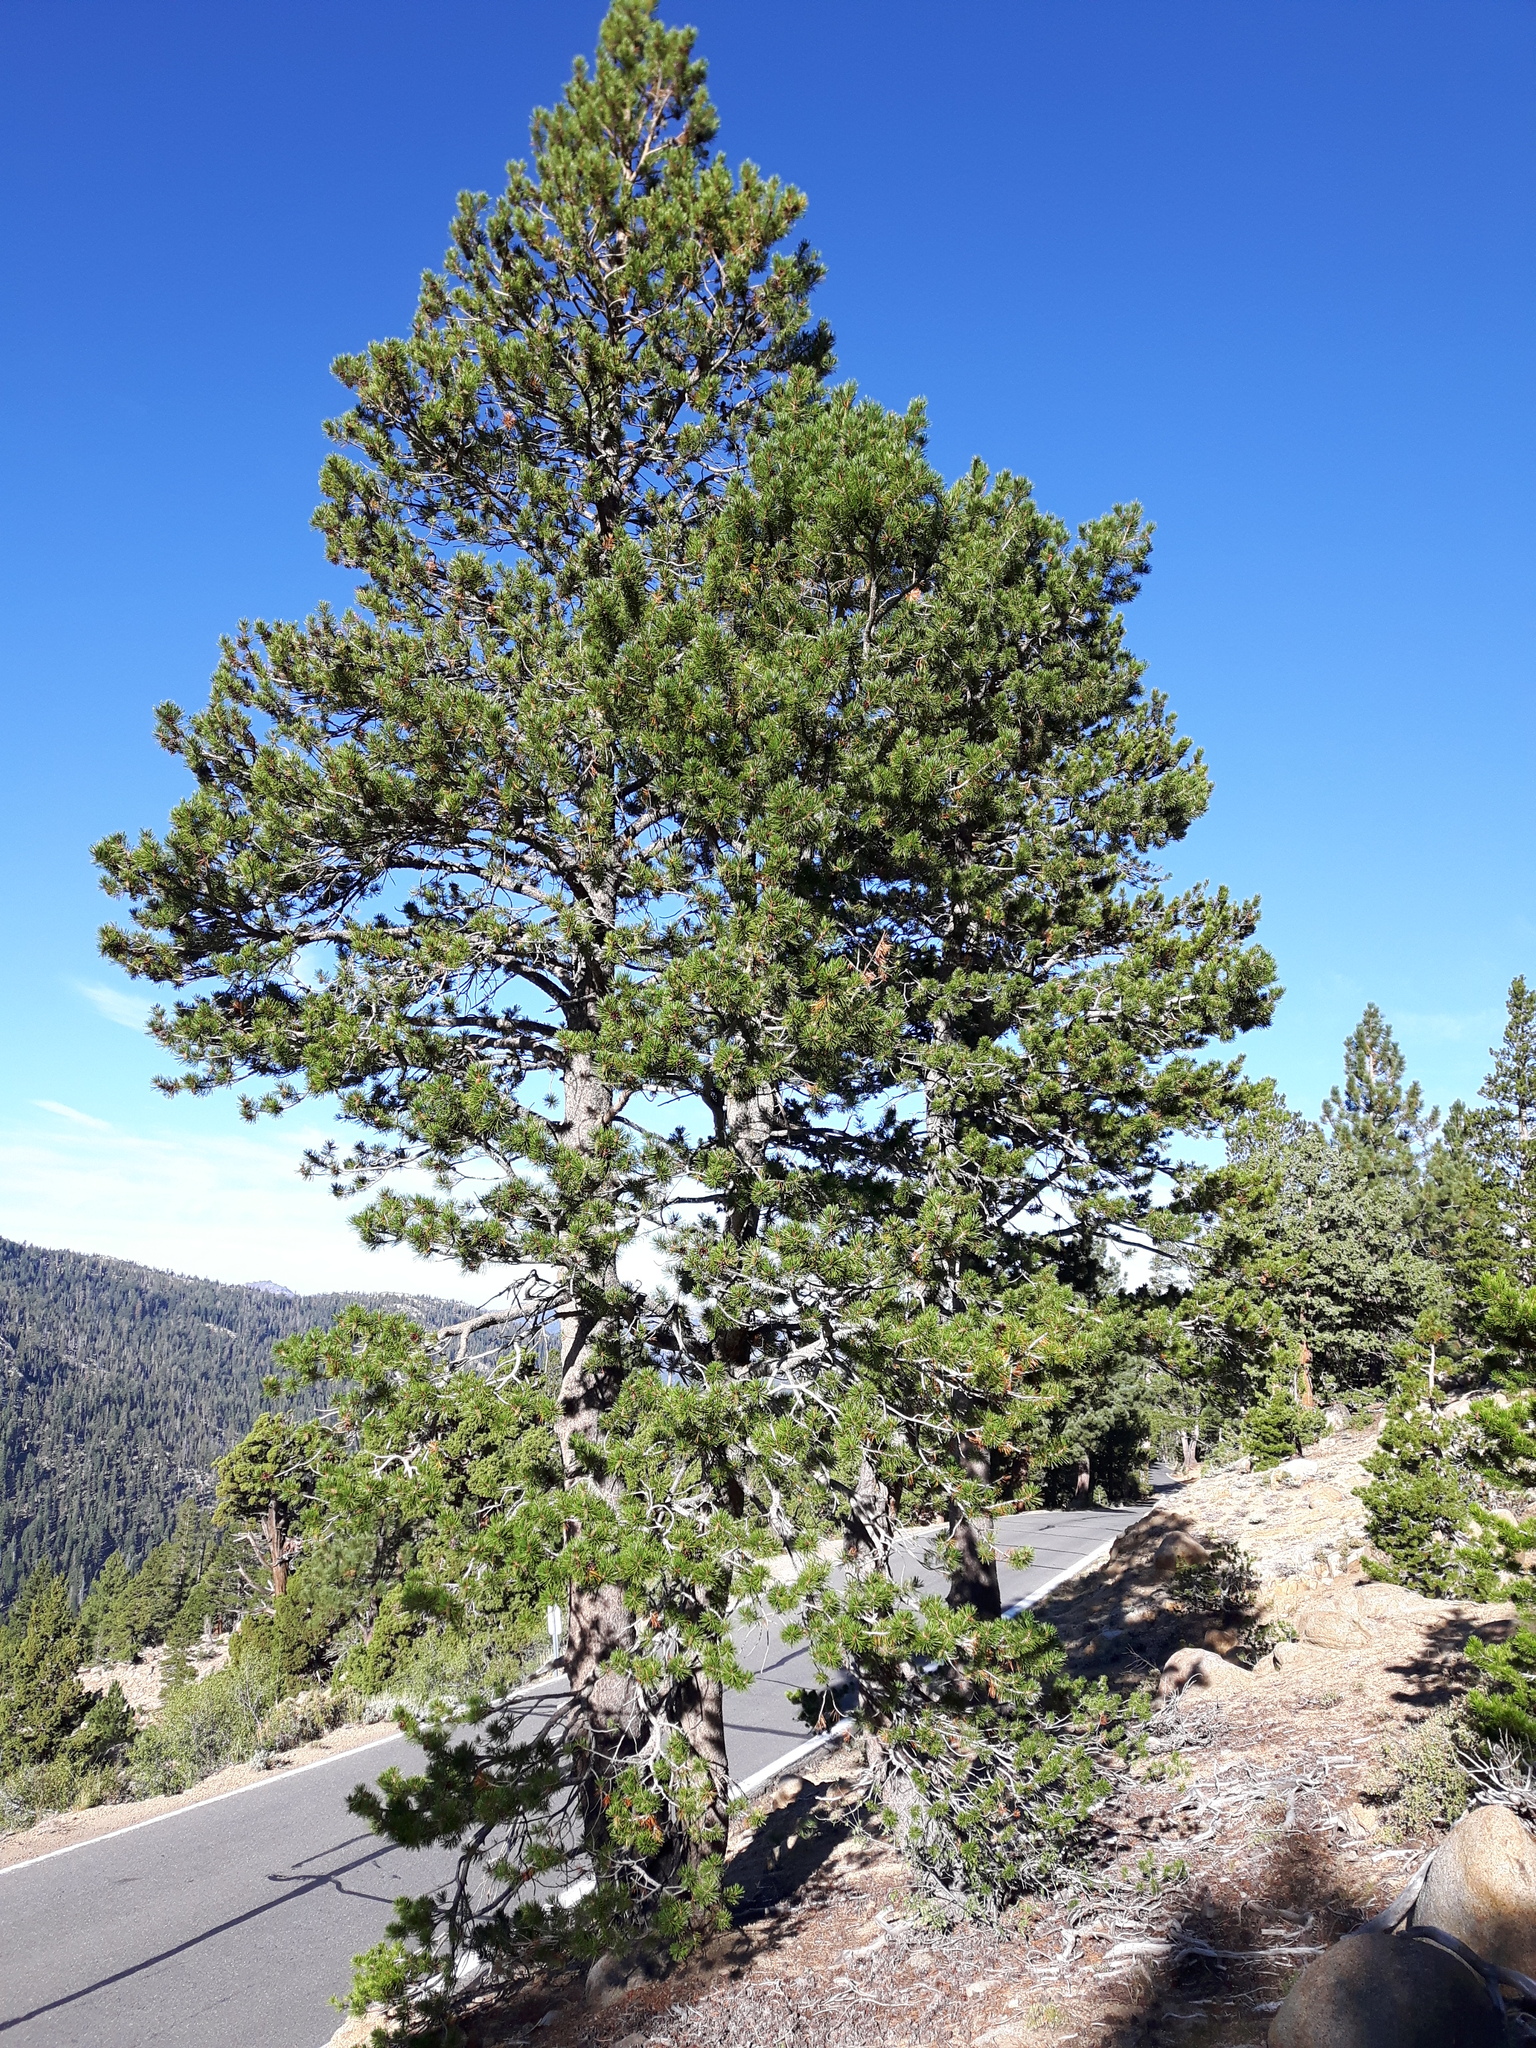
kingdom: Plantae
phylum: Tracheophyta
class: Pinopsida
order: Pinales
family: Pinaceae
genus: Pinus
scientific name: Pinus contorta
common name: Lodgepole pine
